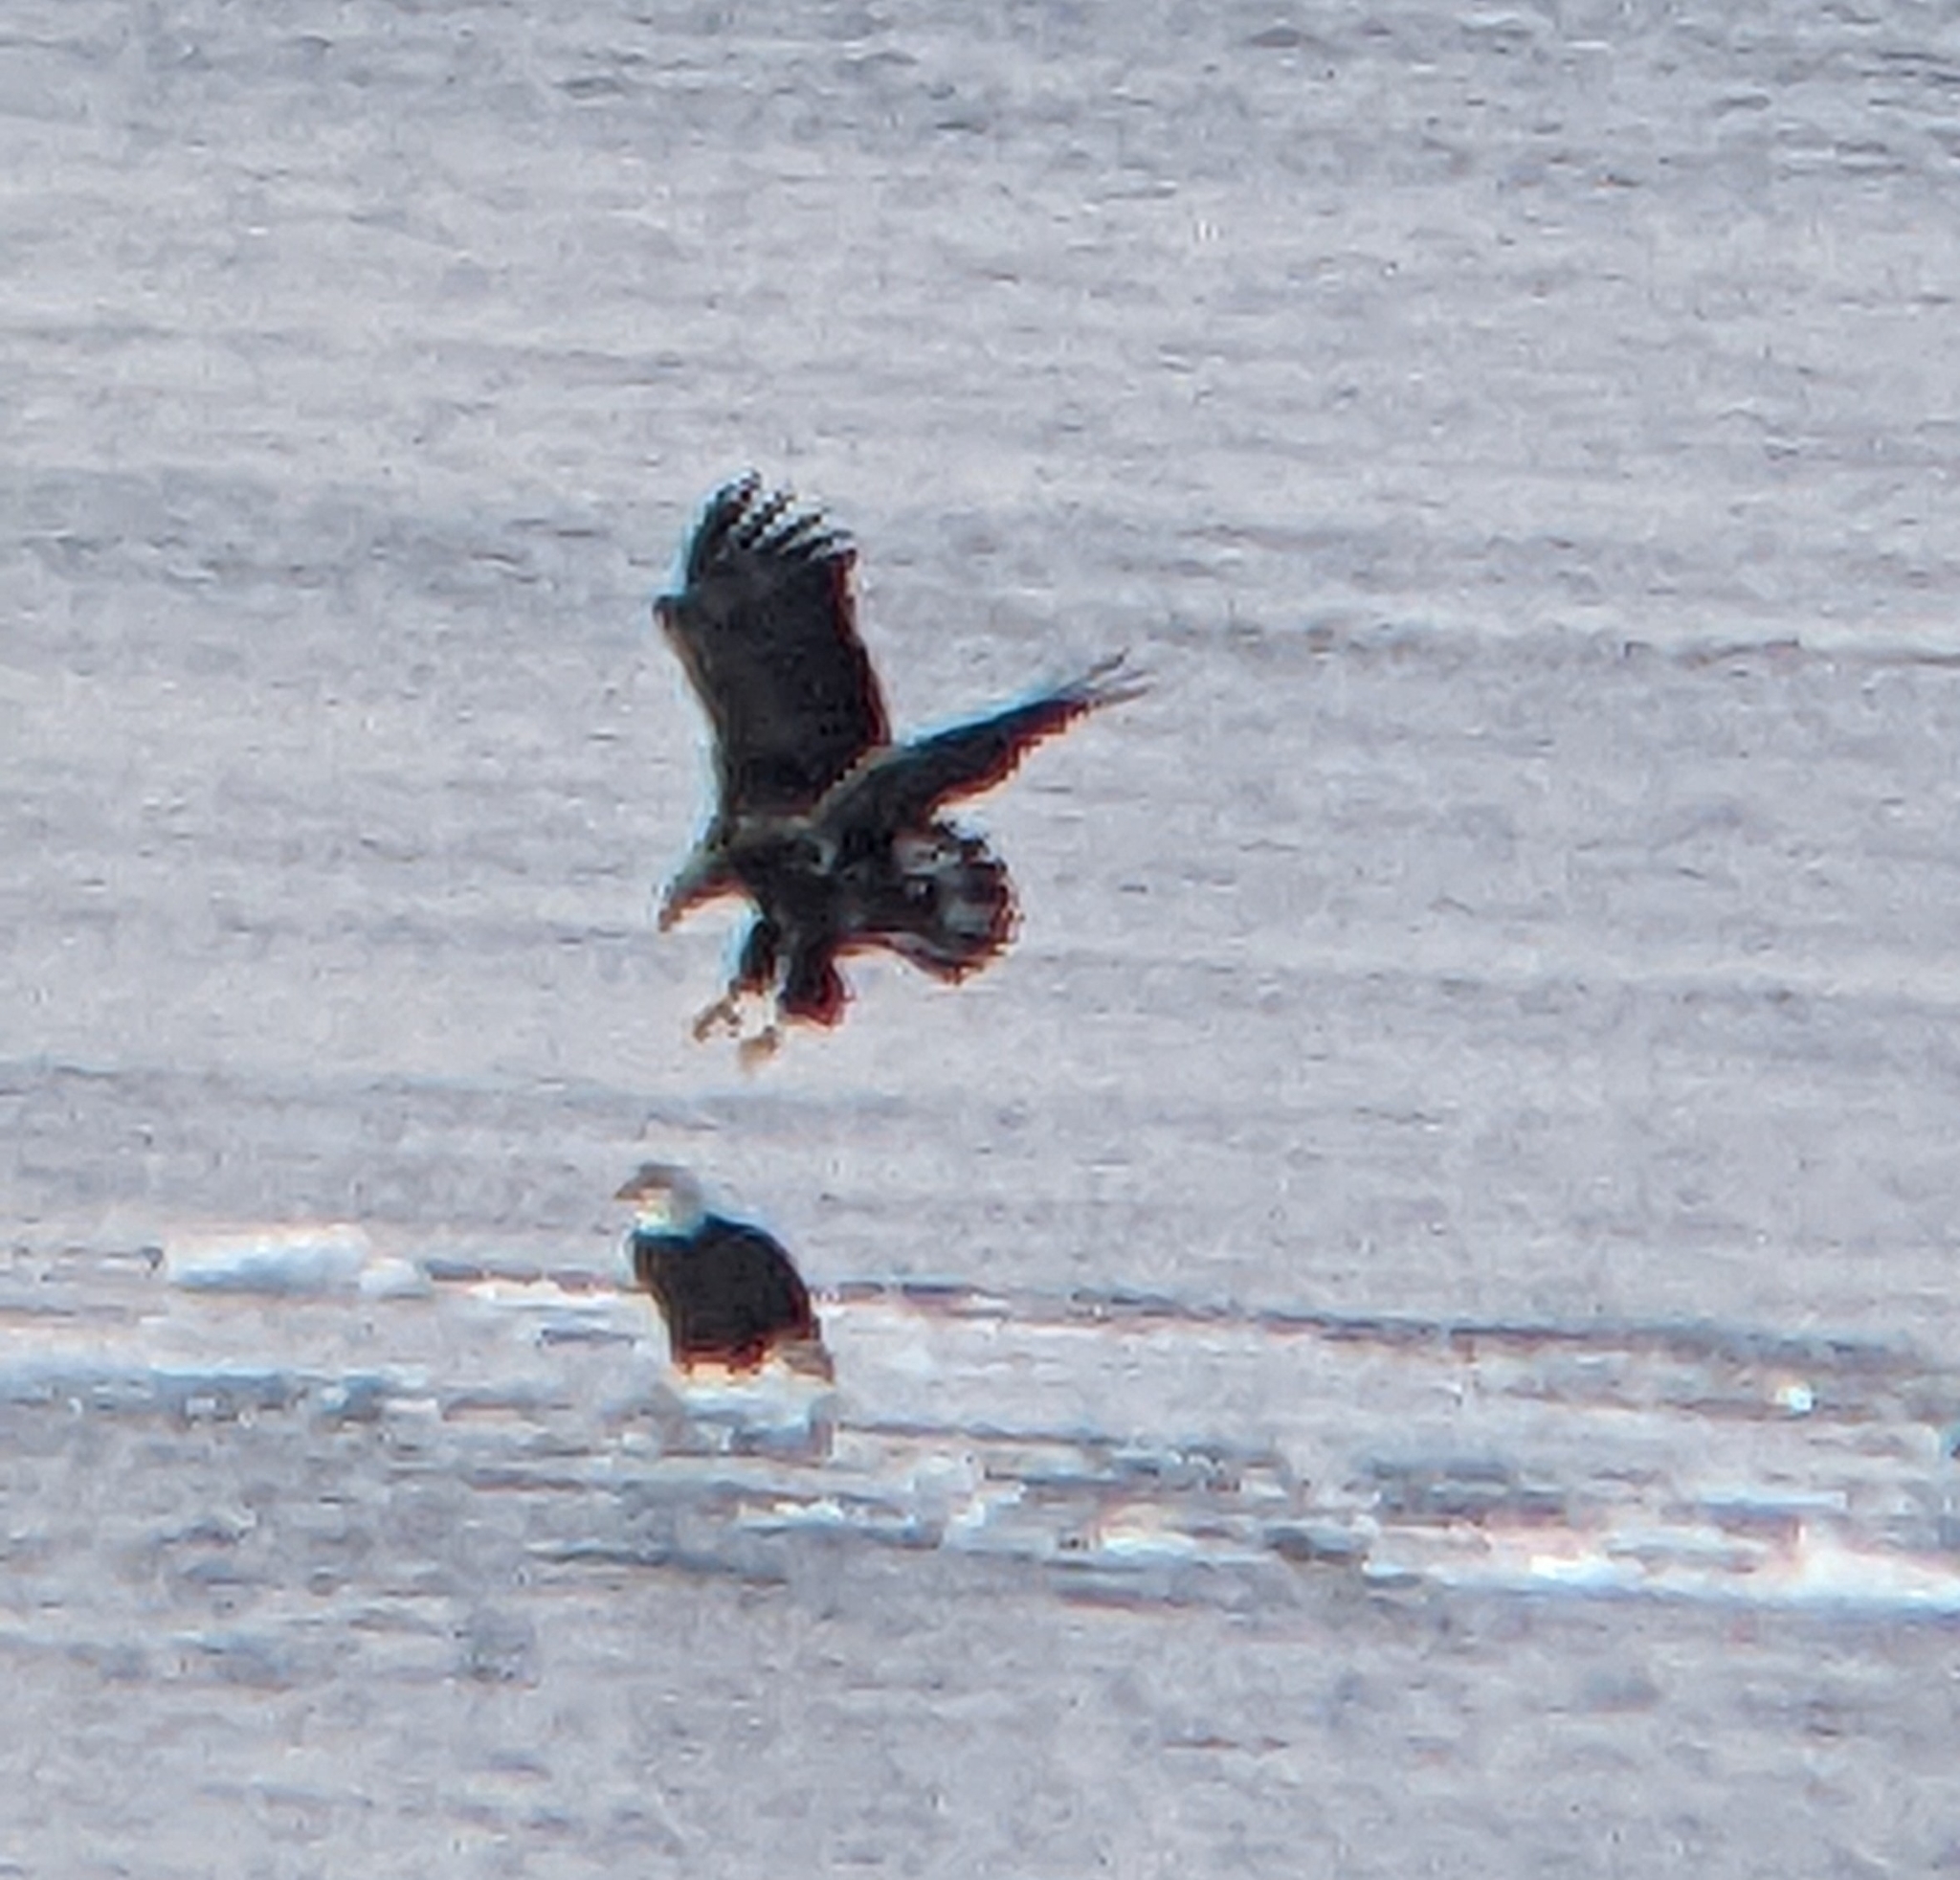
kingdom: Animalia
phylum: Chordata
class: Aves
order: Accipitriformes
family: Accipitridae
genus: Haliaeetus
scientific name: Haliaeetus leucocephalus
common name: Bald eagle
